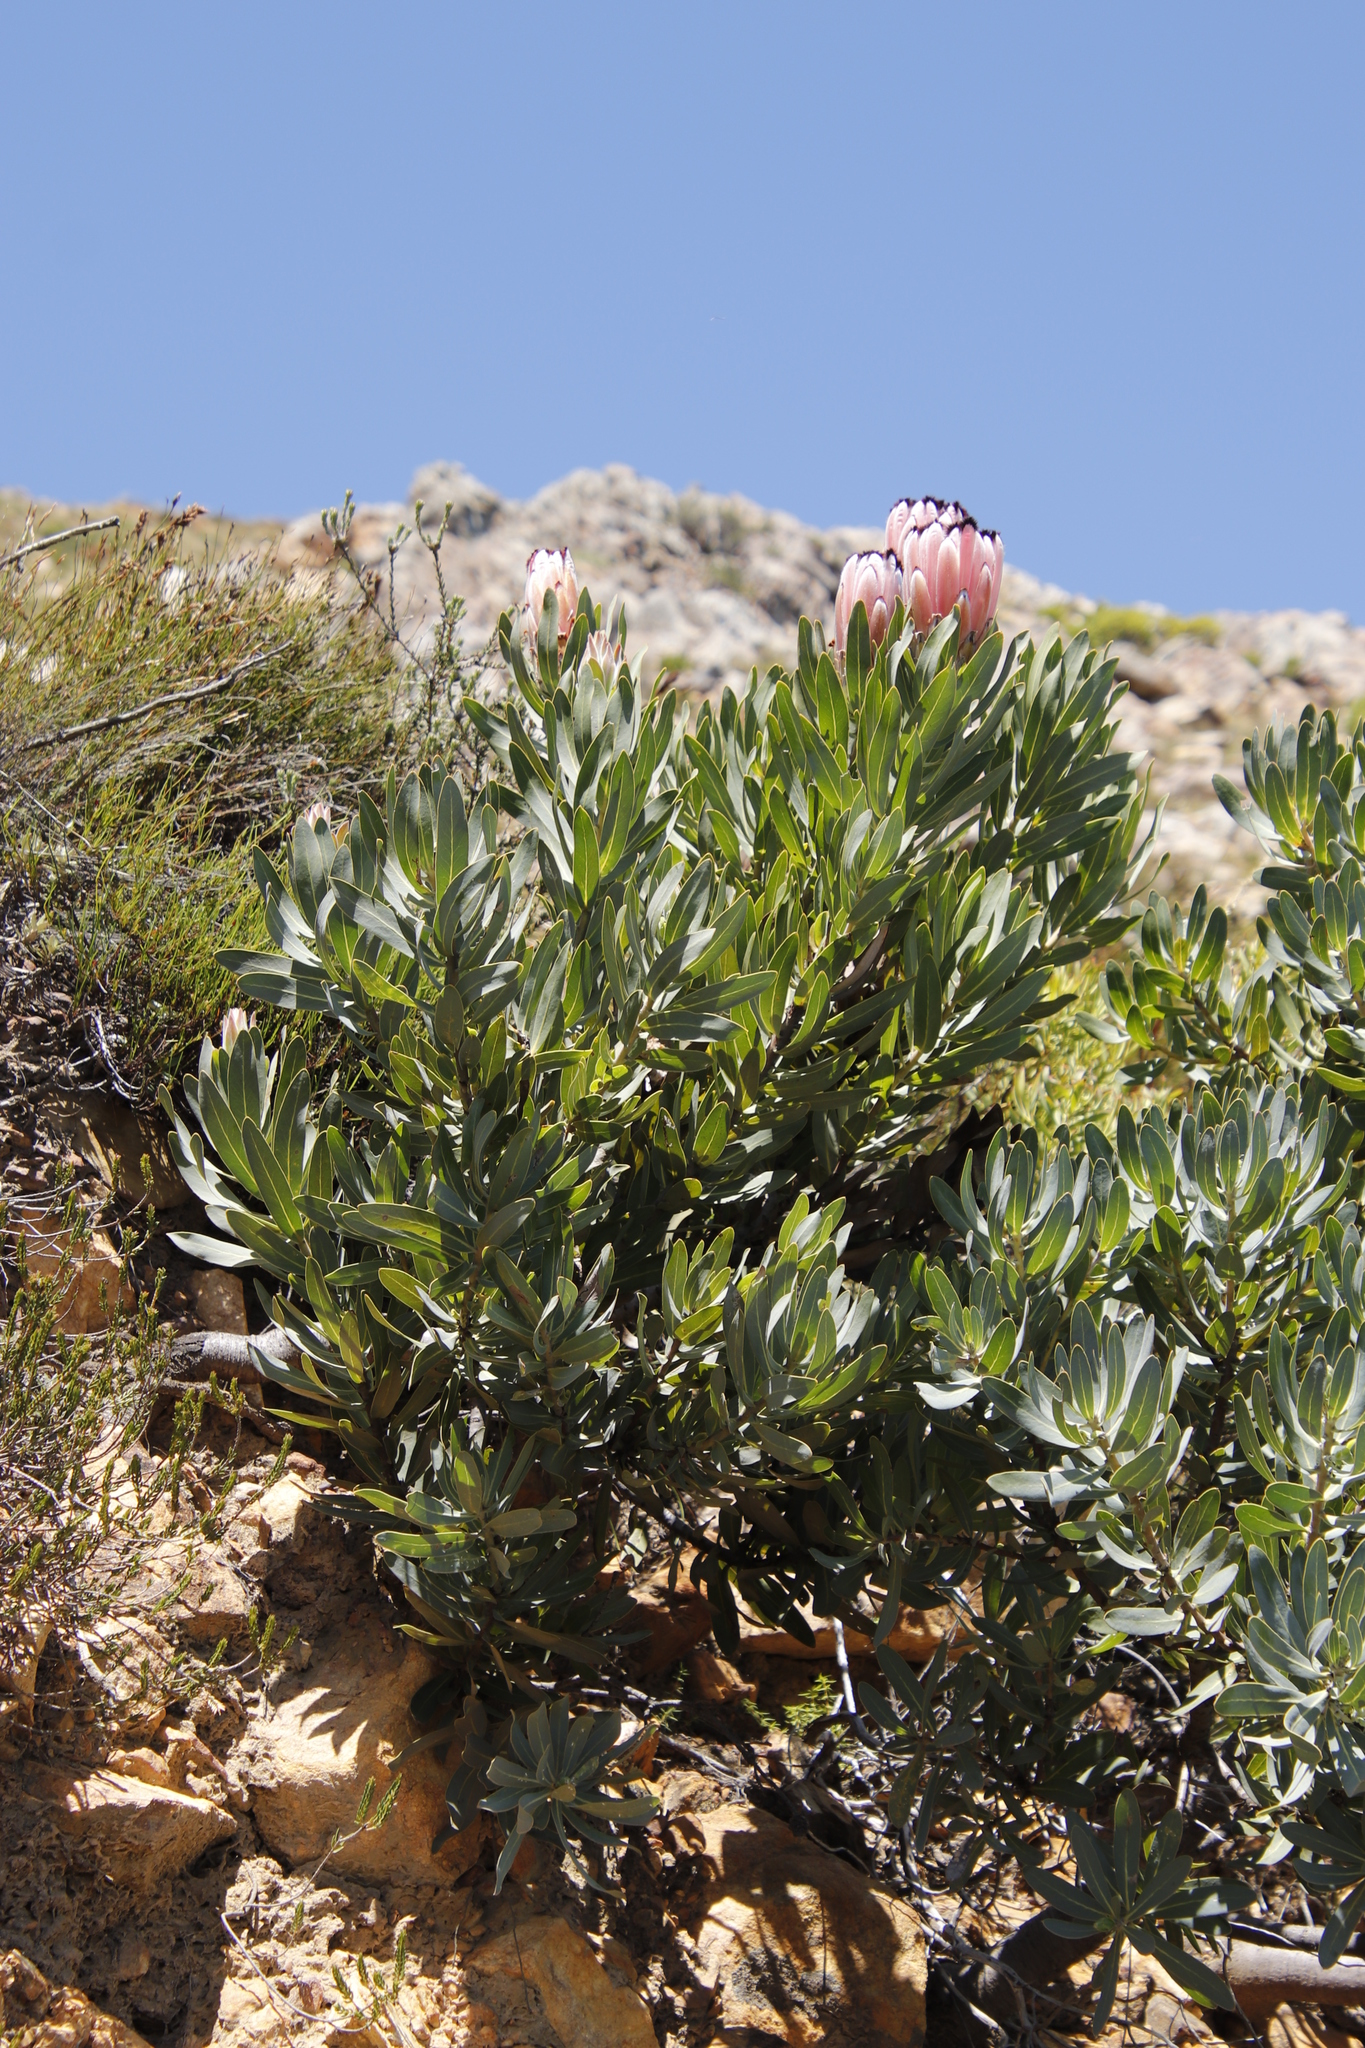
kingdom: Plantae
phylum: Tracheophyta
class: Magnoliopsida
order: Proteales
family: Proteaceae
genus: Protea
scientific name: Protea laurifolia
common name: Grey-leaf sugarbsh
